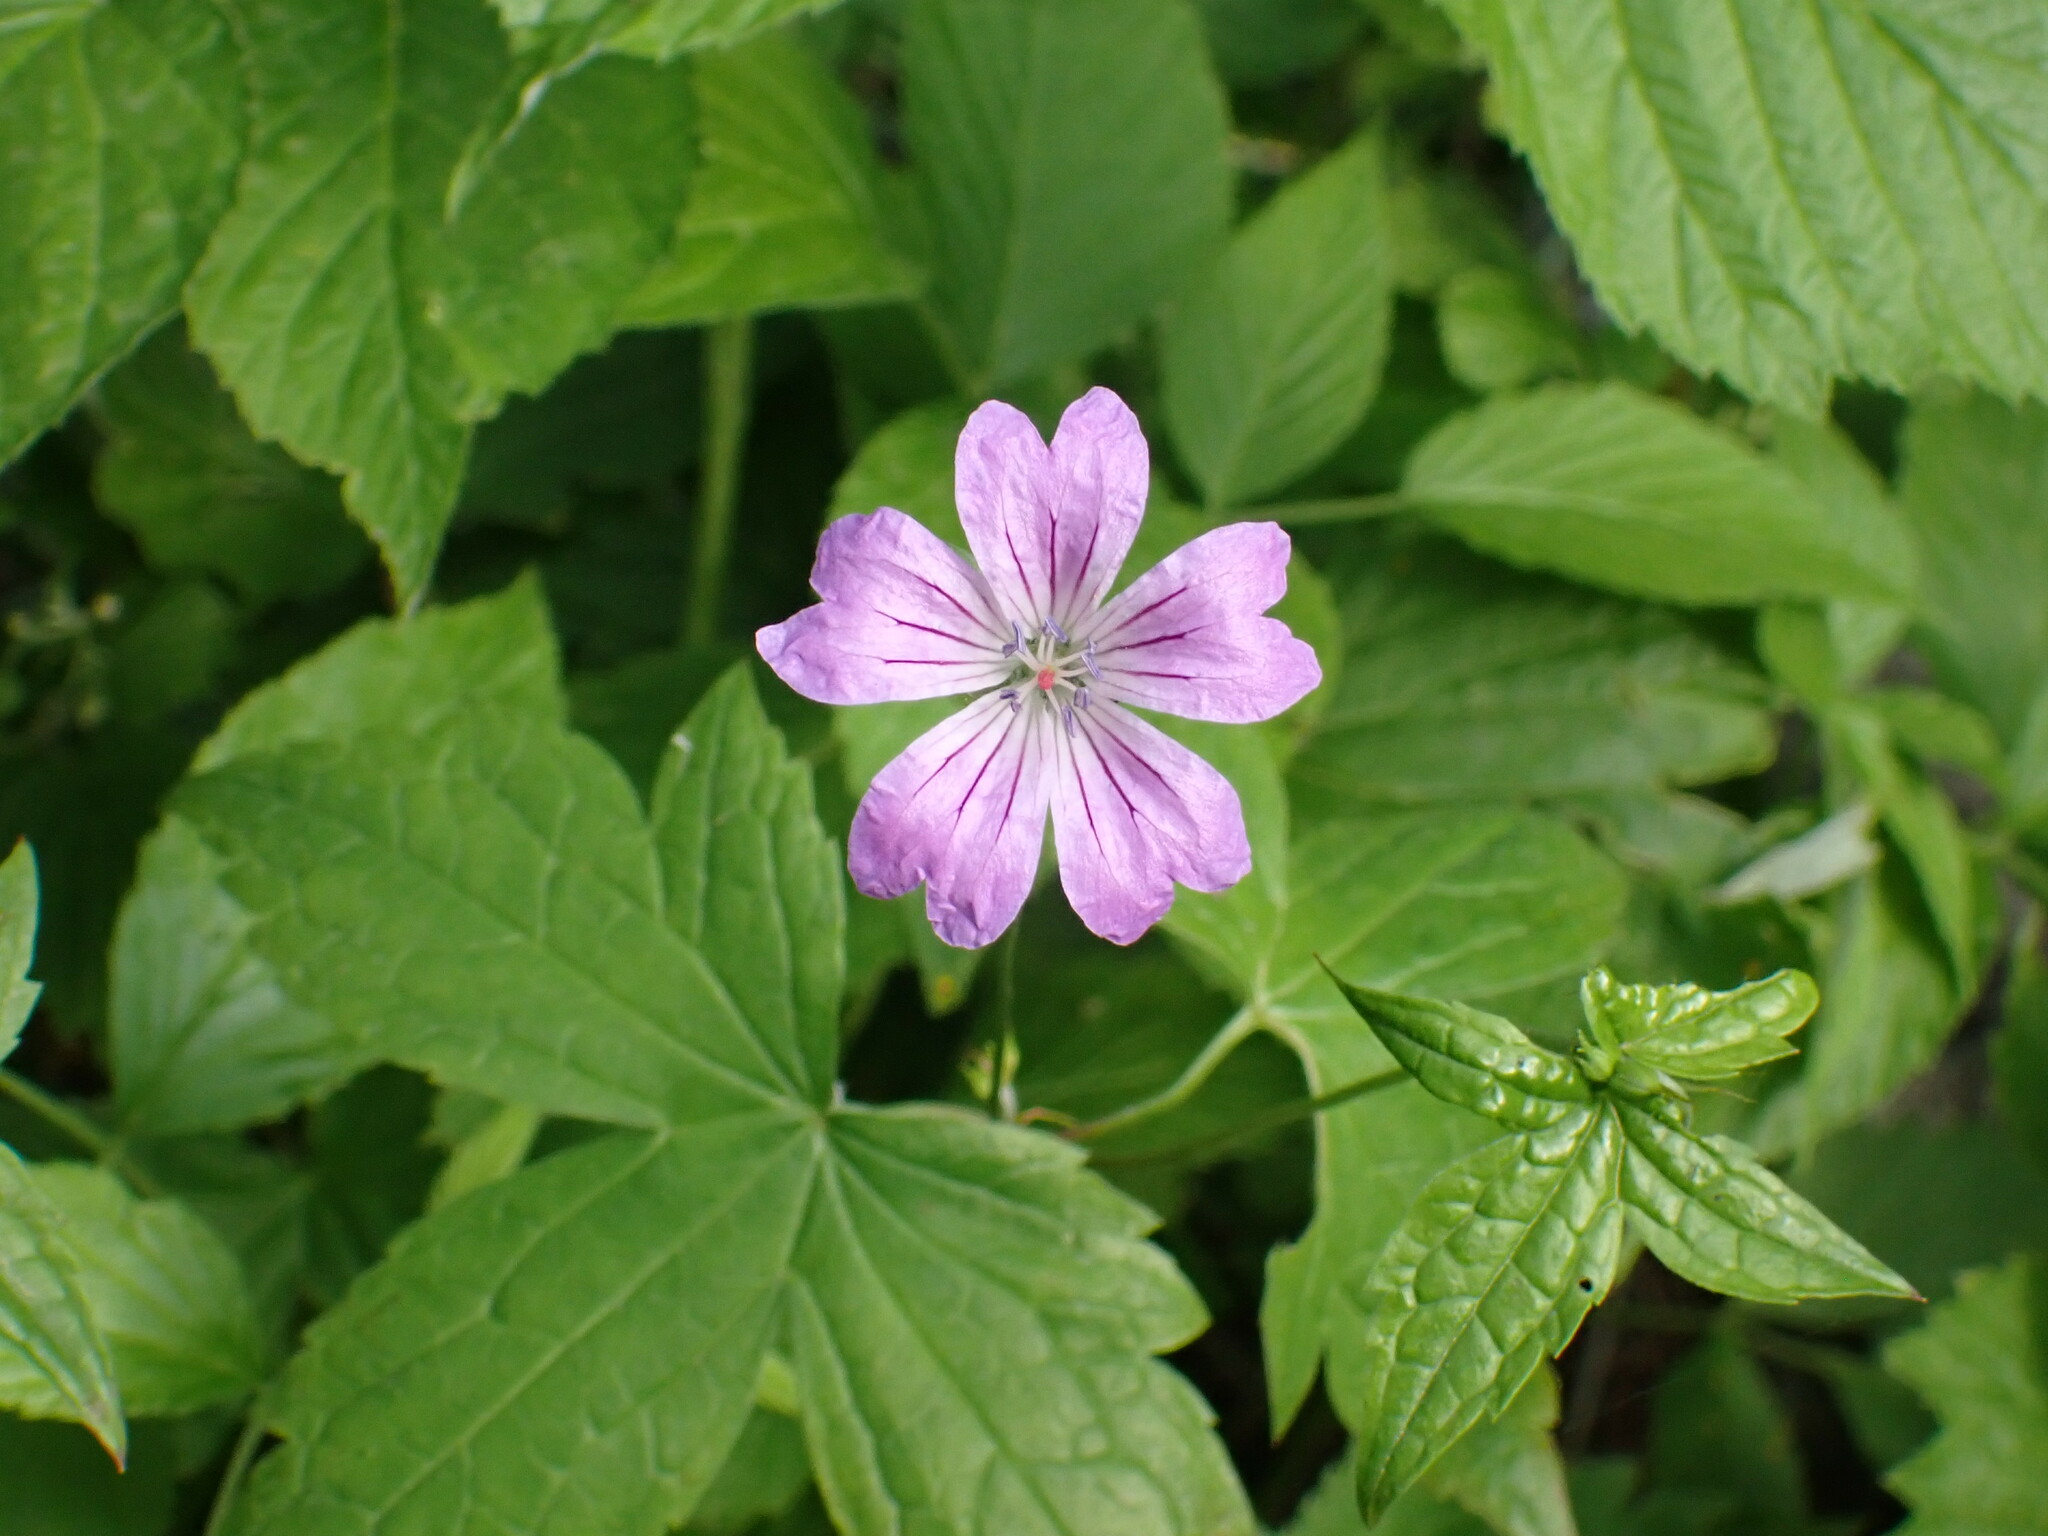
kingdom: Plantae
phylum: Tracheophyta
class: Magnoliopsida
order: Geraniales
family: Geraniaceae
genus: Geranium
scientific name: Geranium nodosum
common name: Knotted crane's-bill
